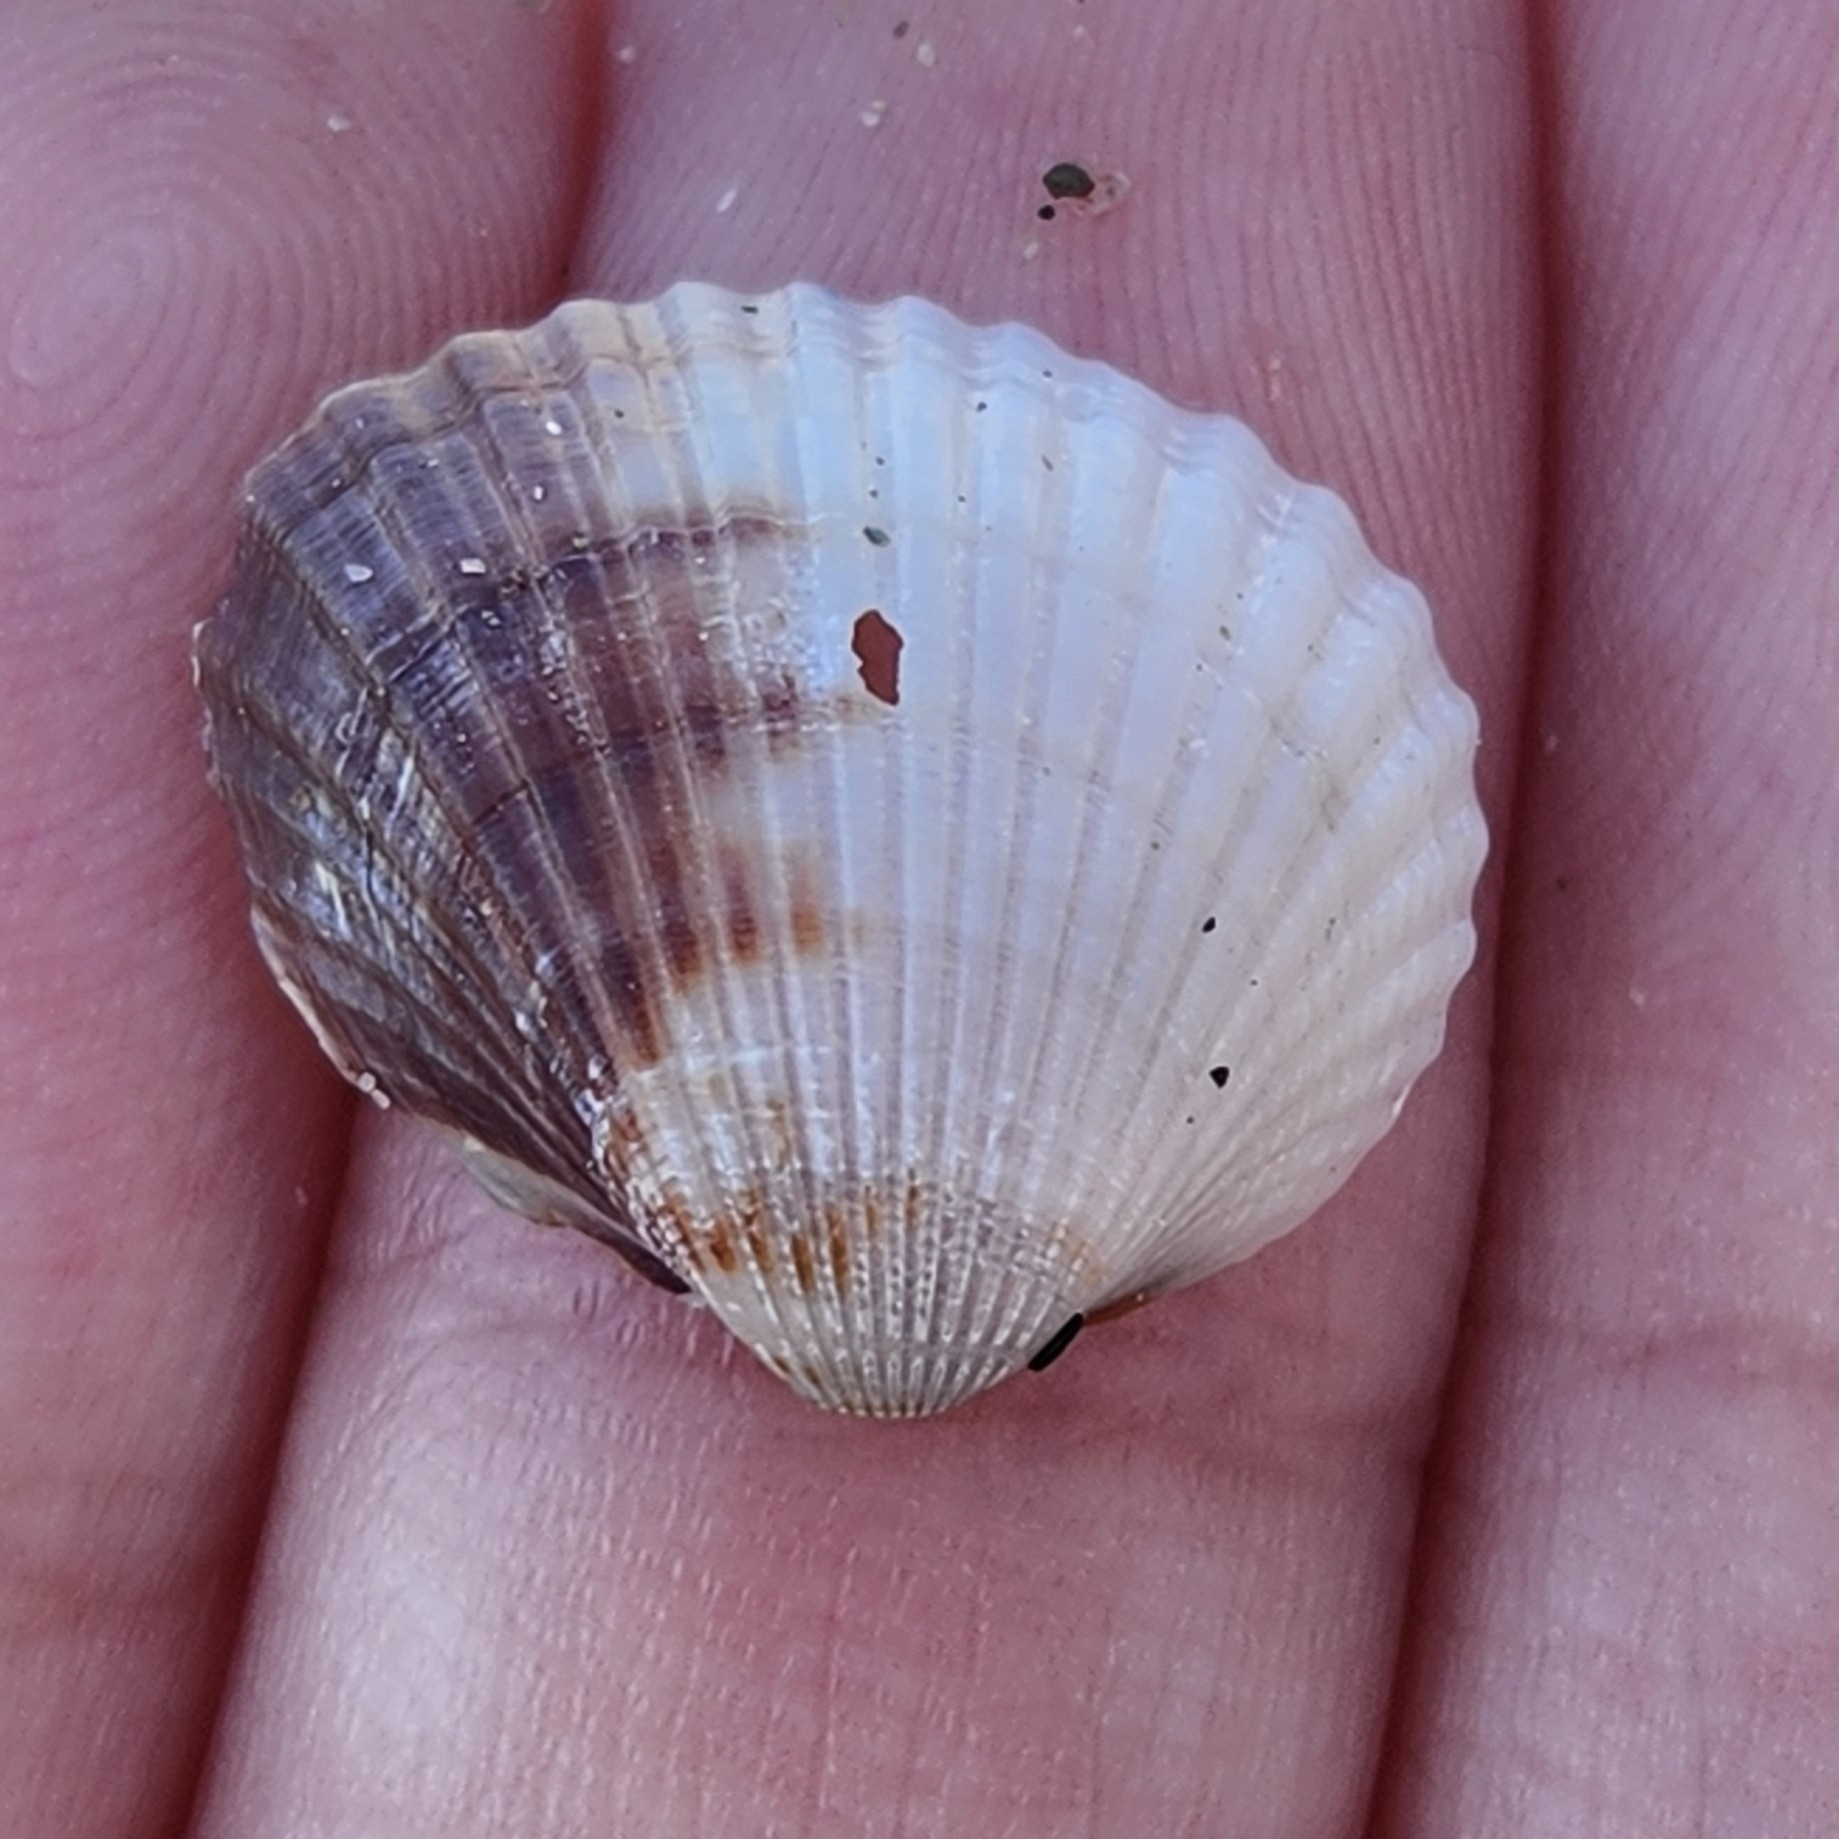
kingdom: Animalia
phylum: Mollusca
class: Bivalvia
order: Cardiida
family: Cardiidae
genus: Cerastoderma
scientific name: Cerastoderma glaucum
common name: Lagoon cockle
